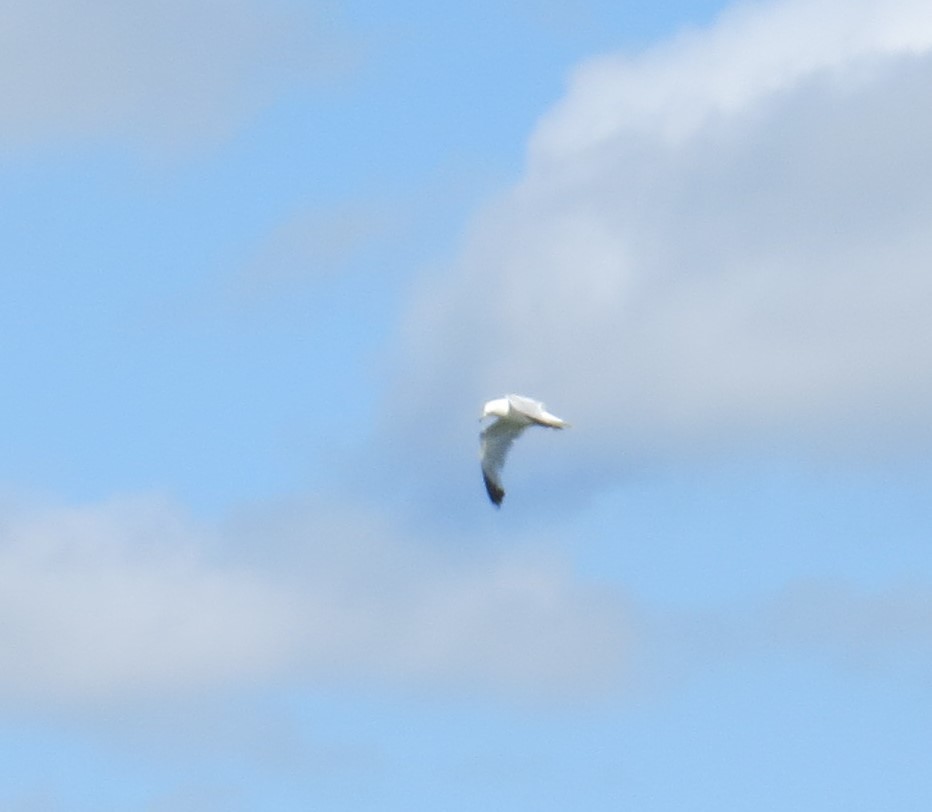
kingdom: Animalia
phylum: Chordata
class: Aves
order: Charadriiformes
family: Laridae
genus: Larus
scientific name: Larus delawarensis
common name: Ring-billed gull
